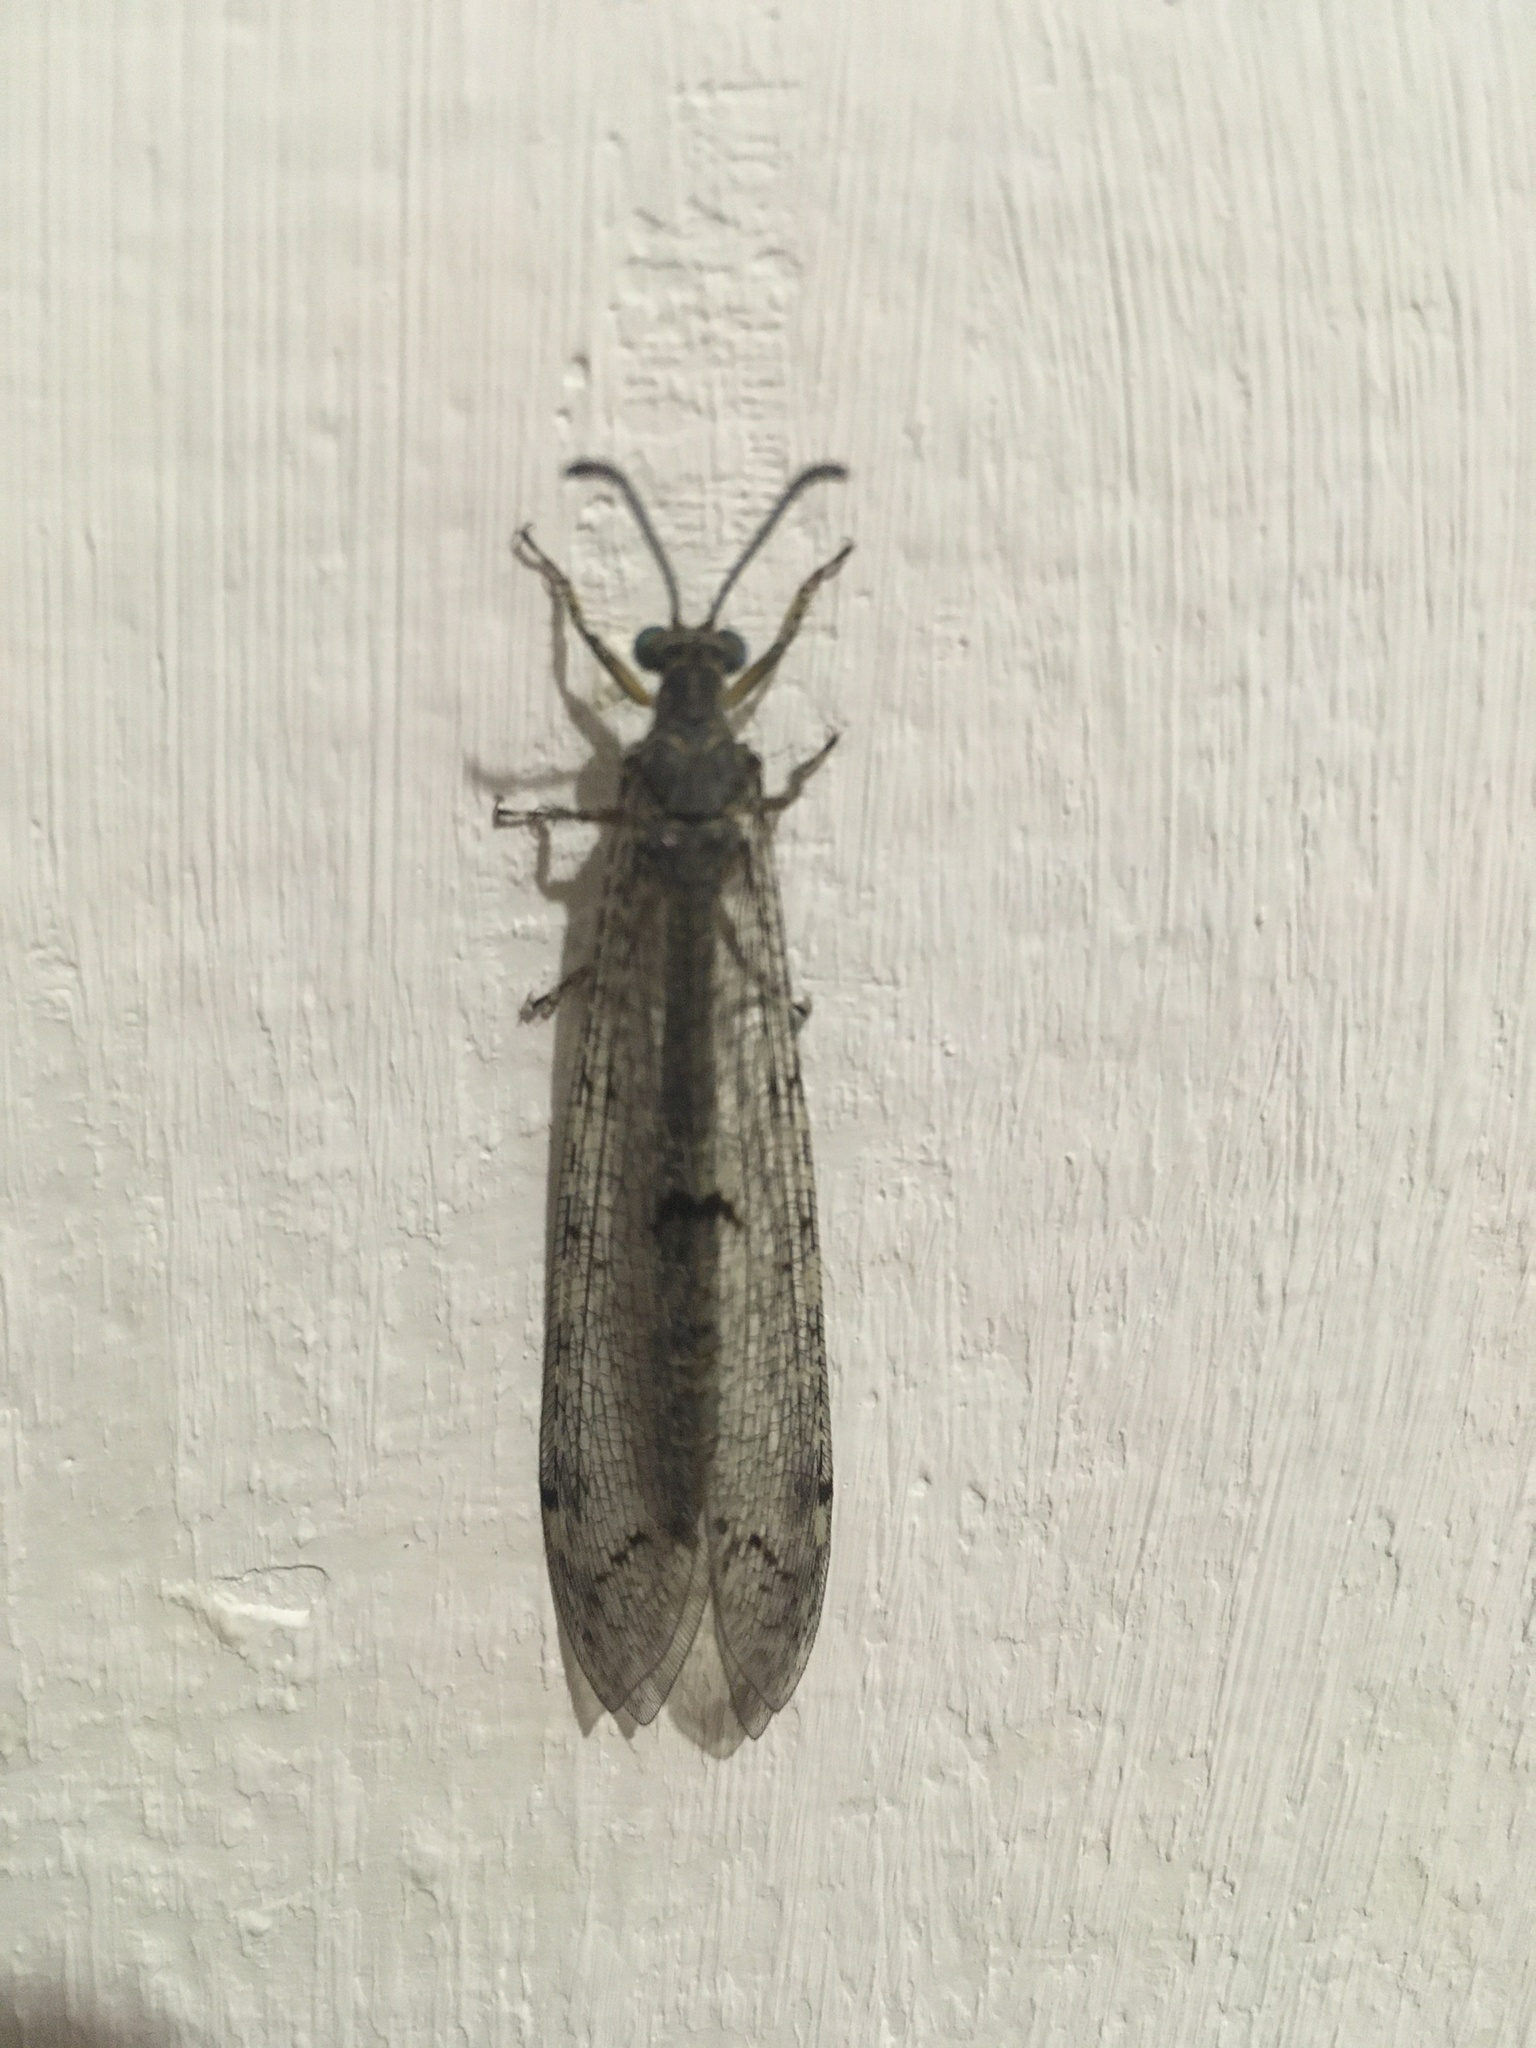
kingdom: Animalia
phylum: Arthropoda
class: Insecta
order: Neuroptera
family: Myrmeleontidae
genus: Distoleon
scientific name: Distoleon tetragrammicus
